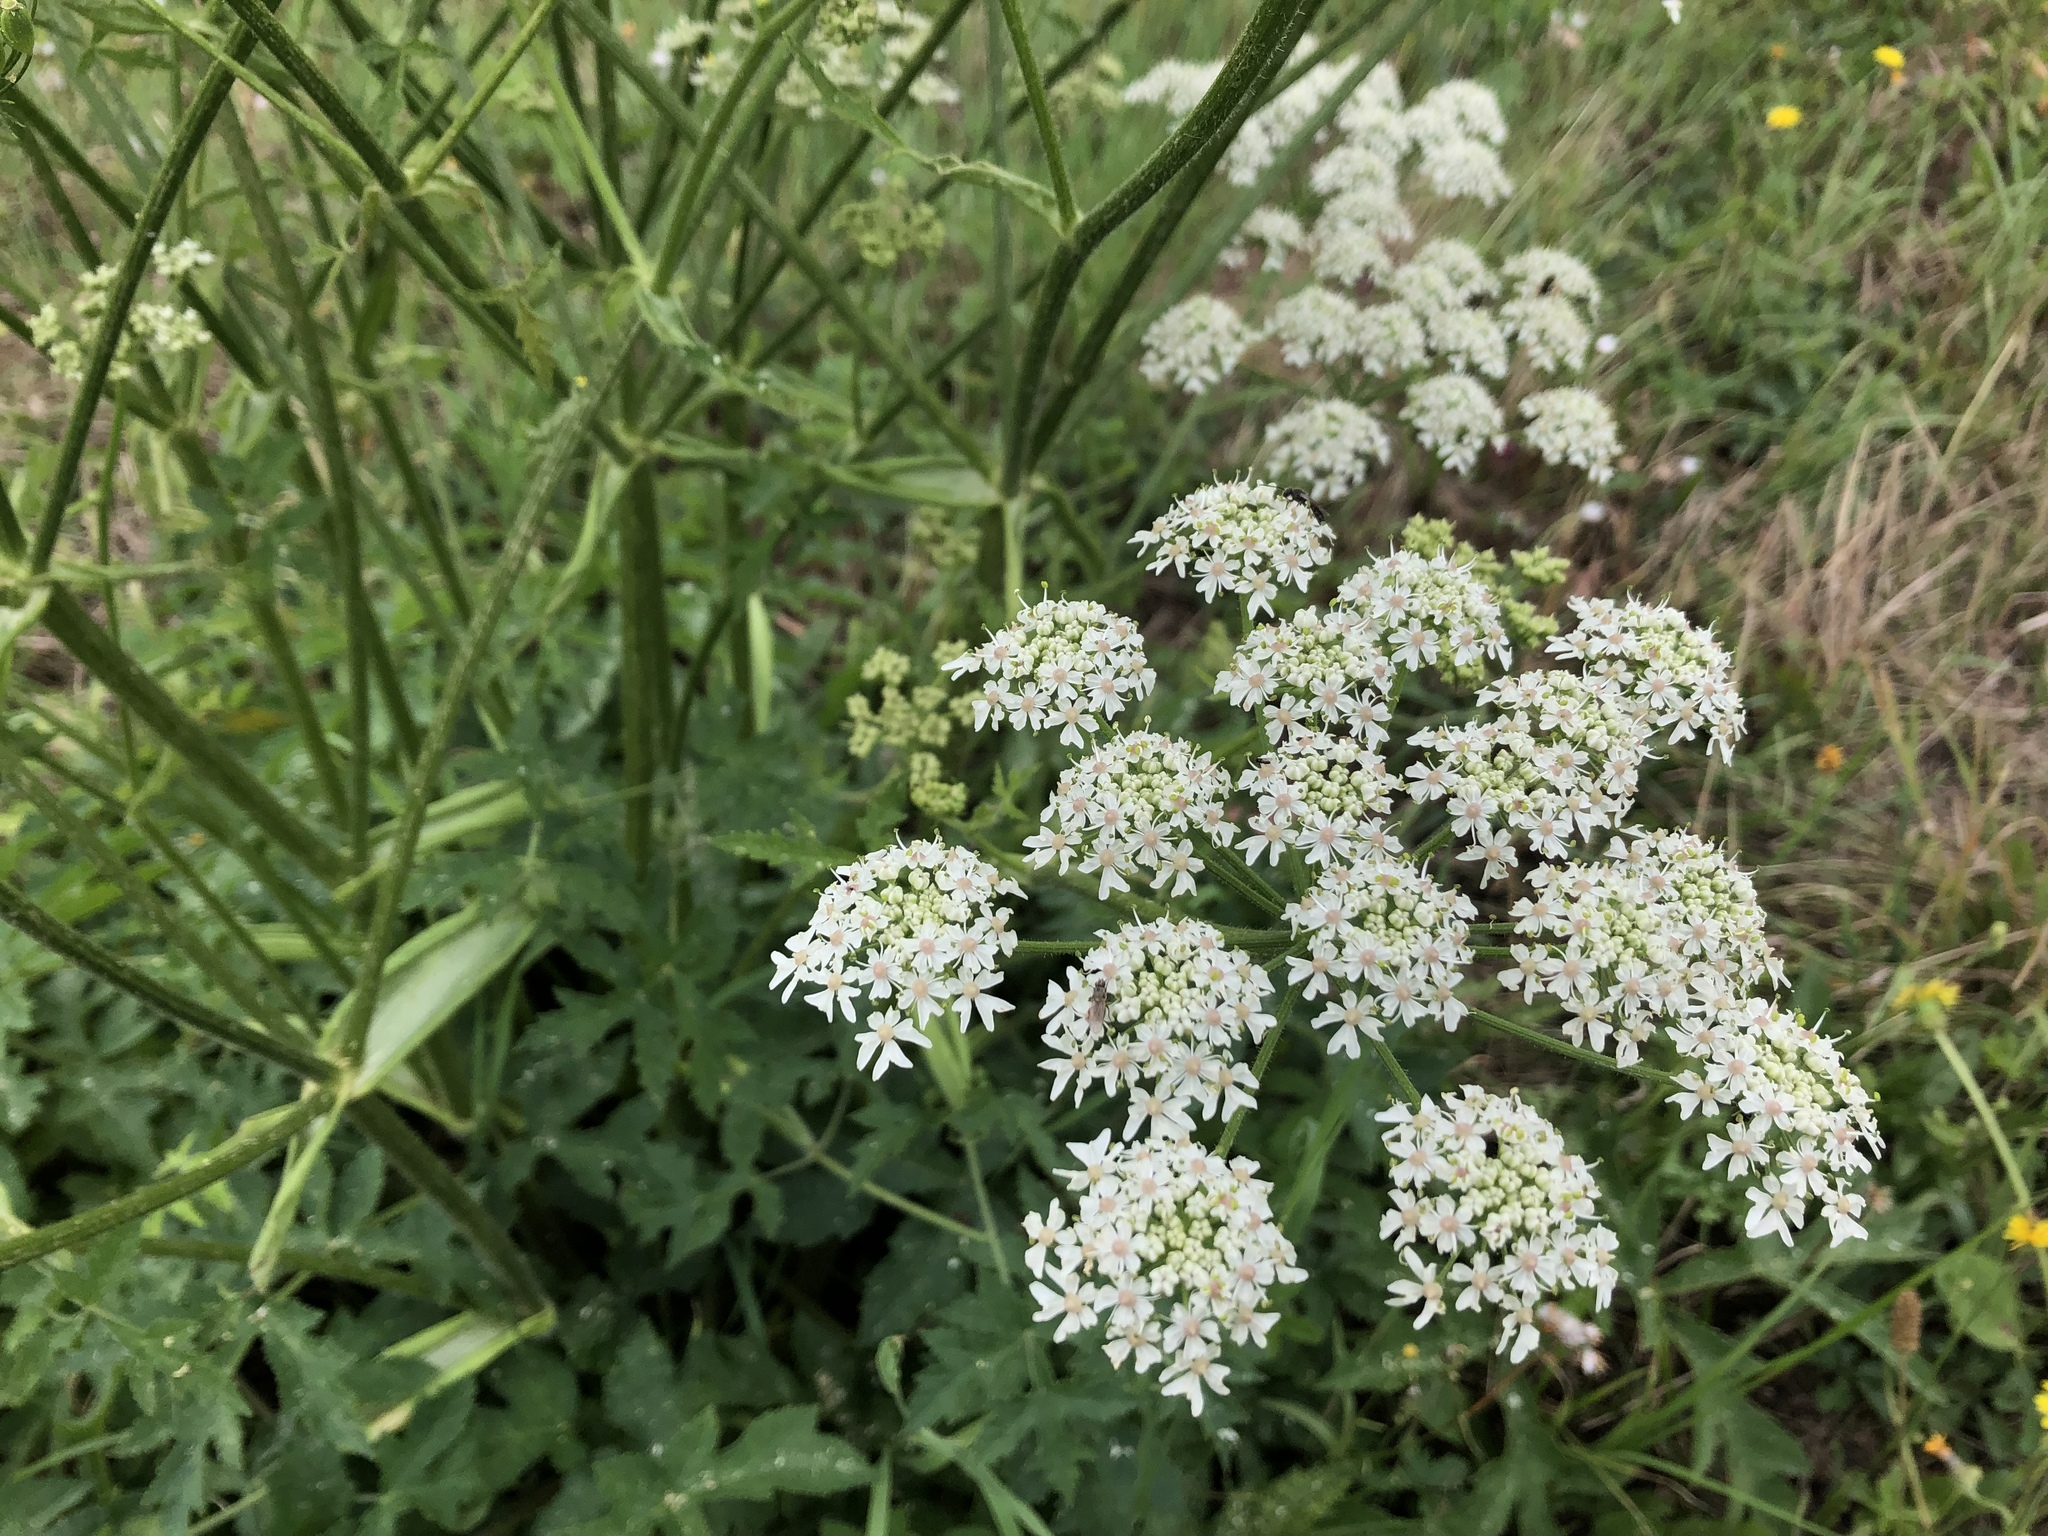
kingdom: Plantae
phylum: Tracheophyta
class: Magnoliopsida
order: Apiales
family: Apiaceae
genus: Heracleum
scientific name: Heracleum sphondylium
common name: Hogweed
